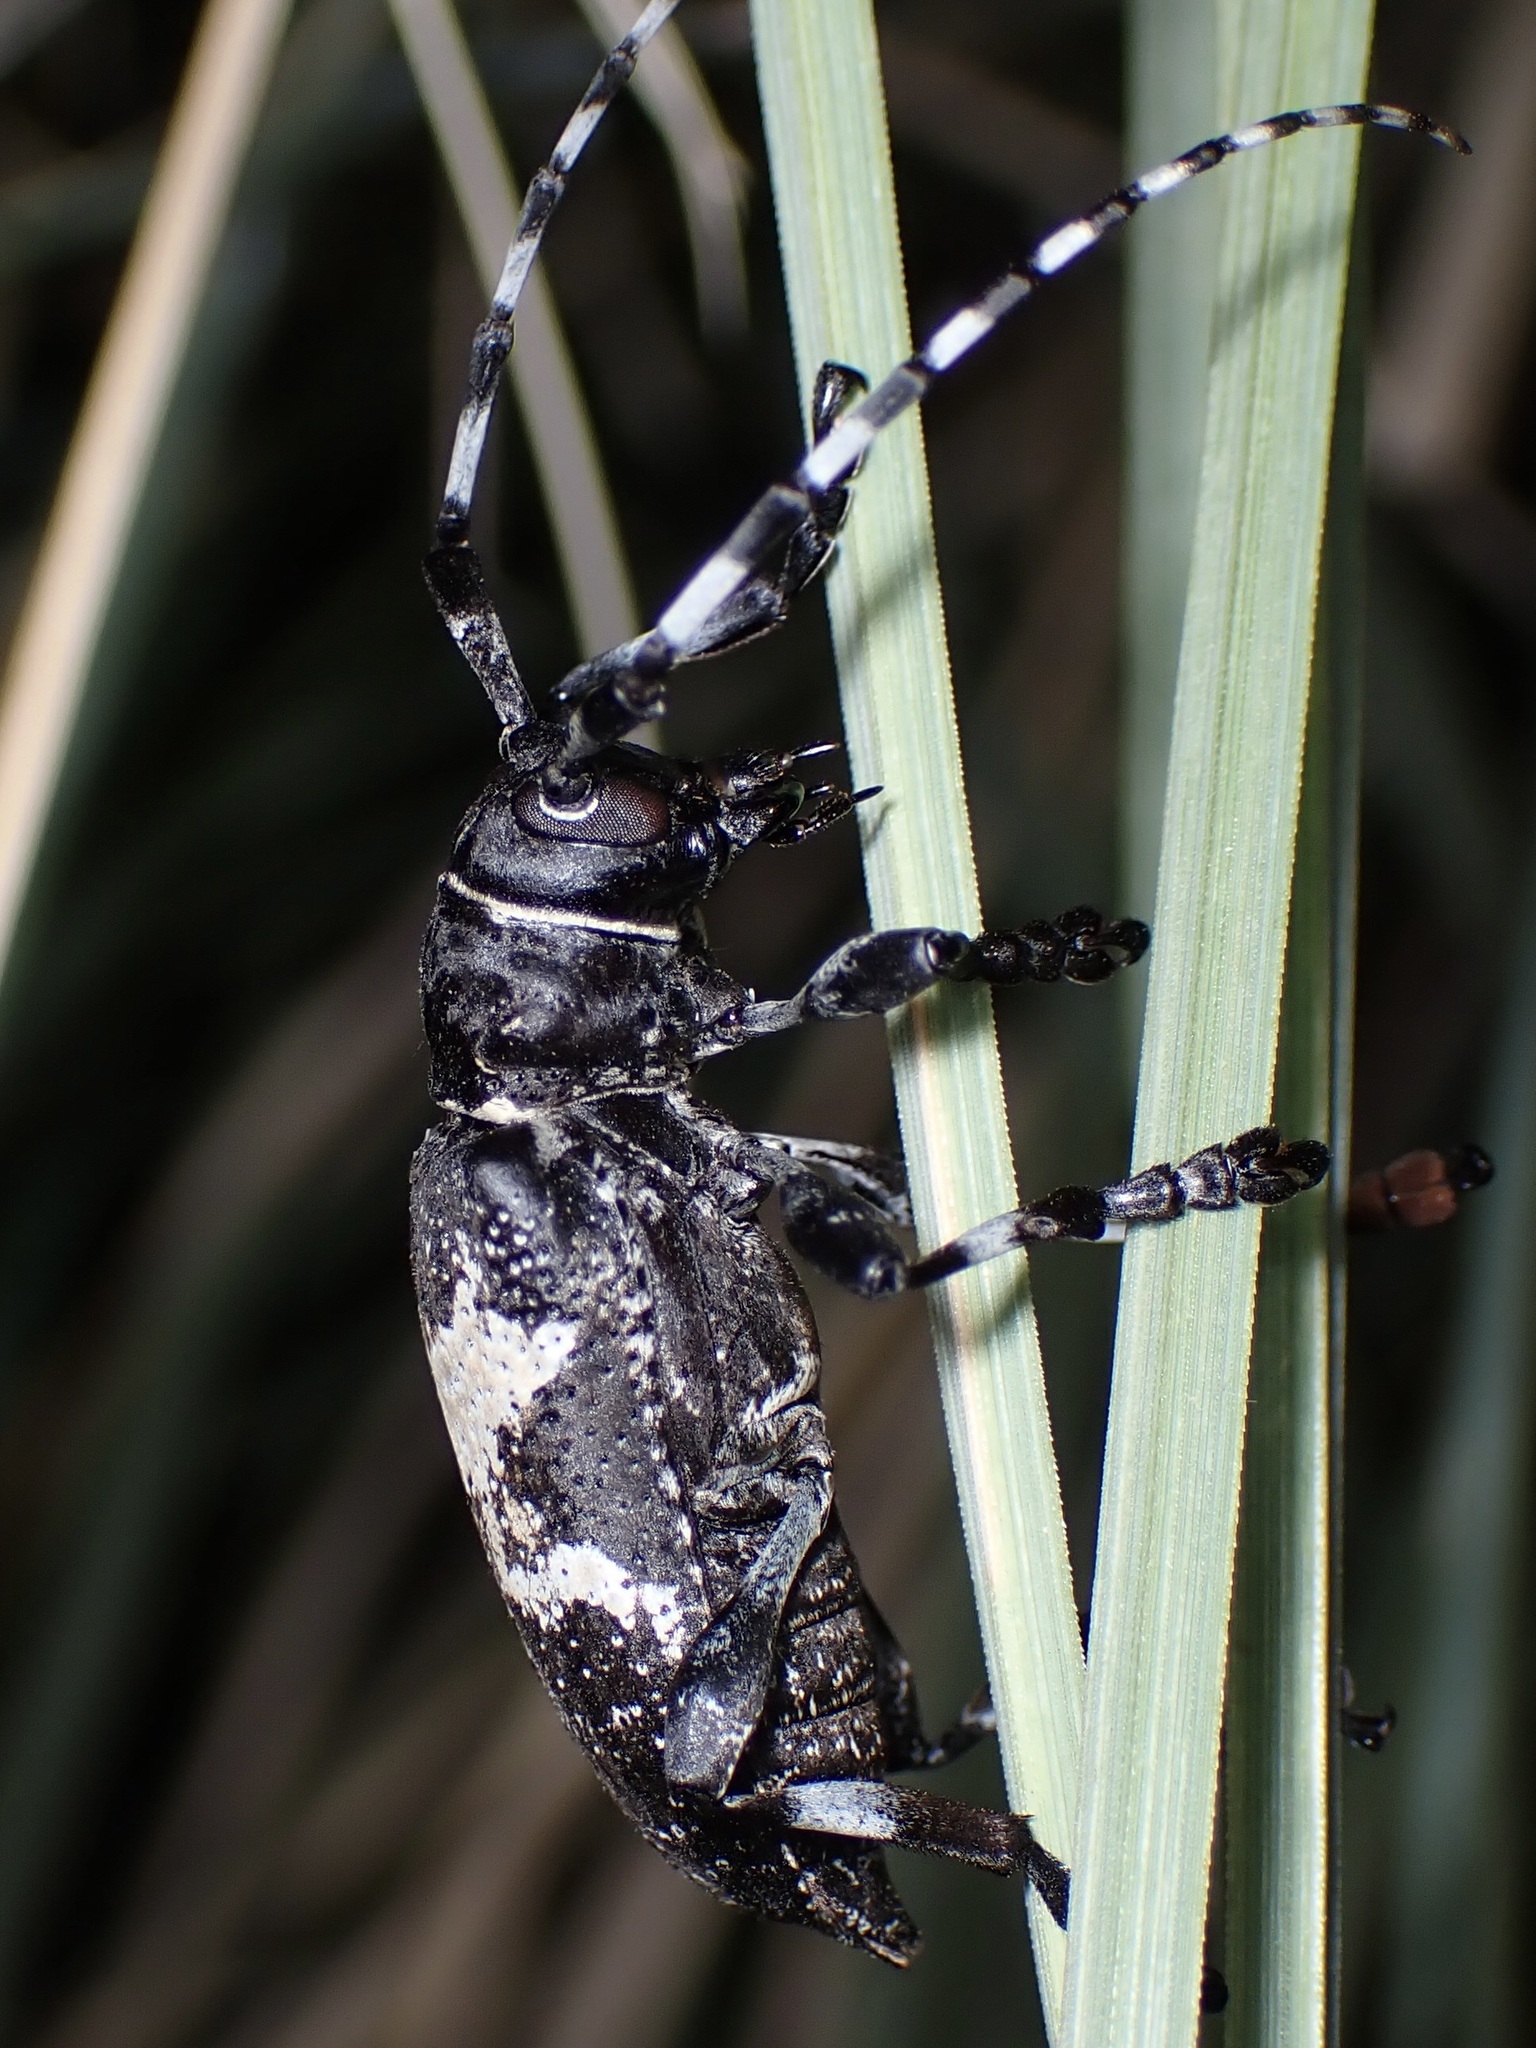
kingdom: Animalia
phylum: Arthropoda
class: Insecta
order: Coleoptera
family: Cerambycidae
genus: Coenopoeus
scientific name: Coenopoeus palmeri
